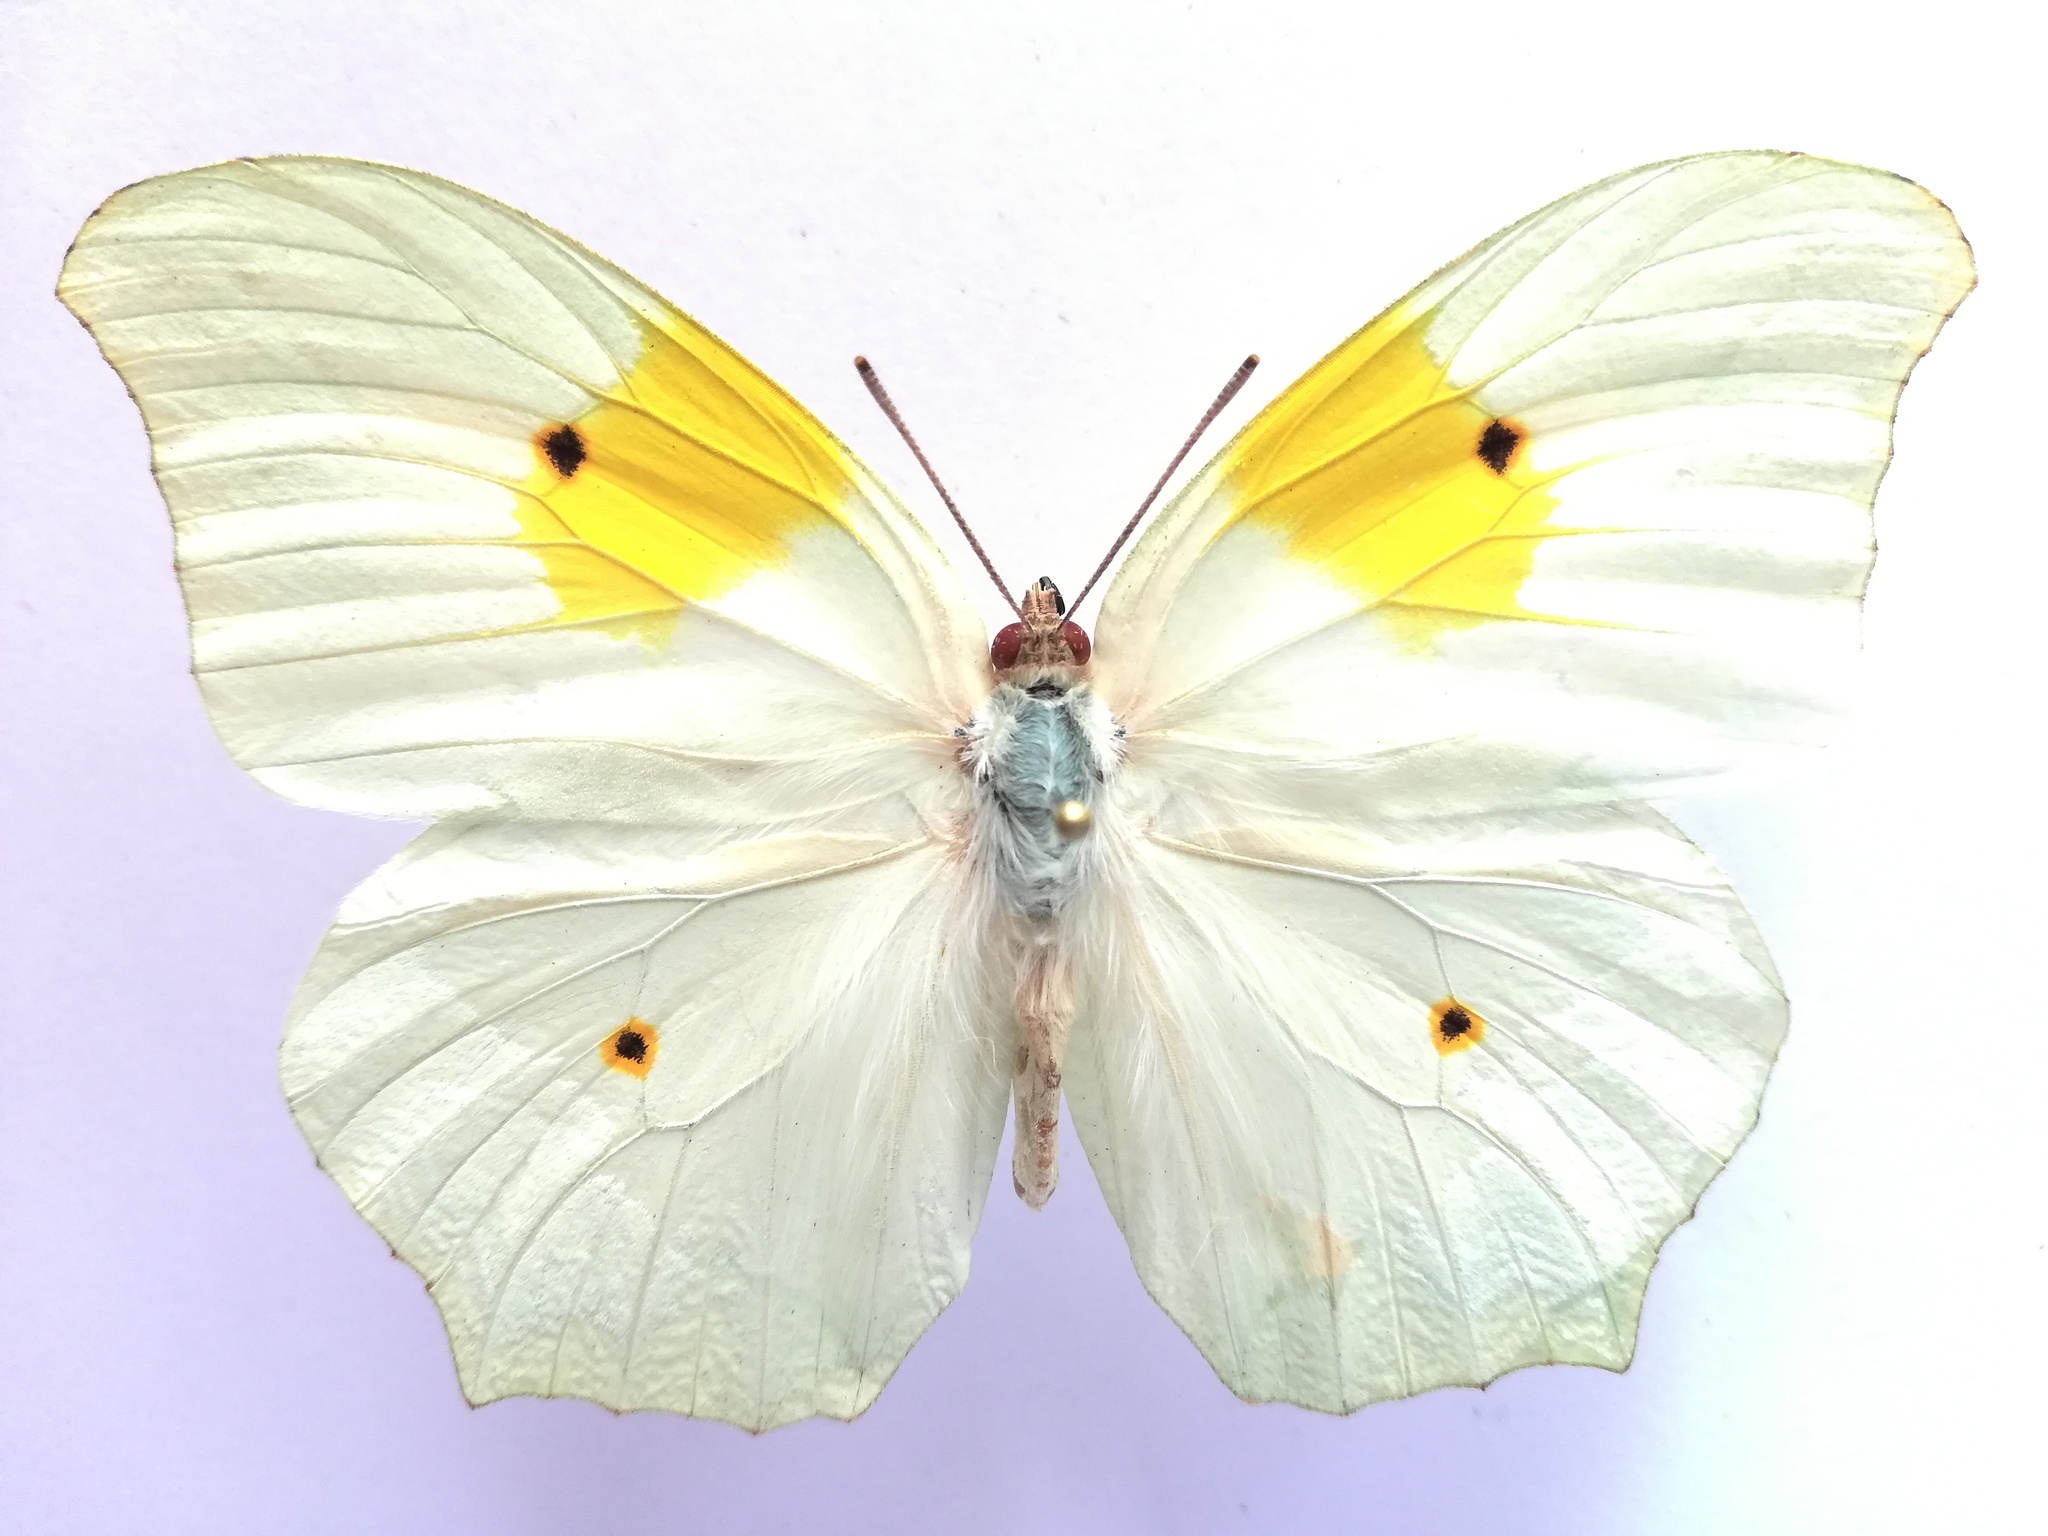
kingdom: Animalia
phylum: Arthropoda
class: Insecta
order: Lepidoptera
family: Pieridae
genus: Anteos
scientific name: Anteos clorinde
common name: White angled sulphur
